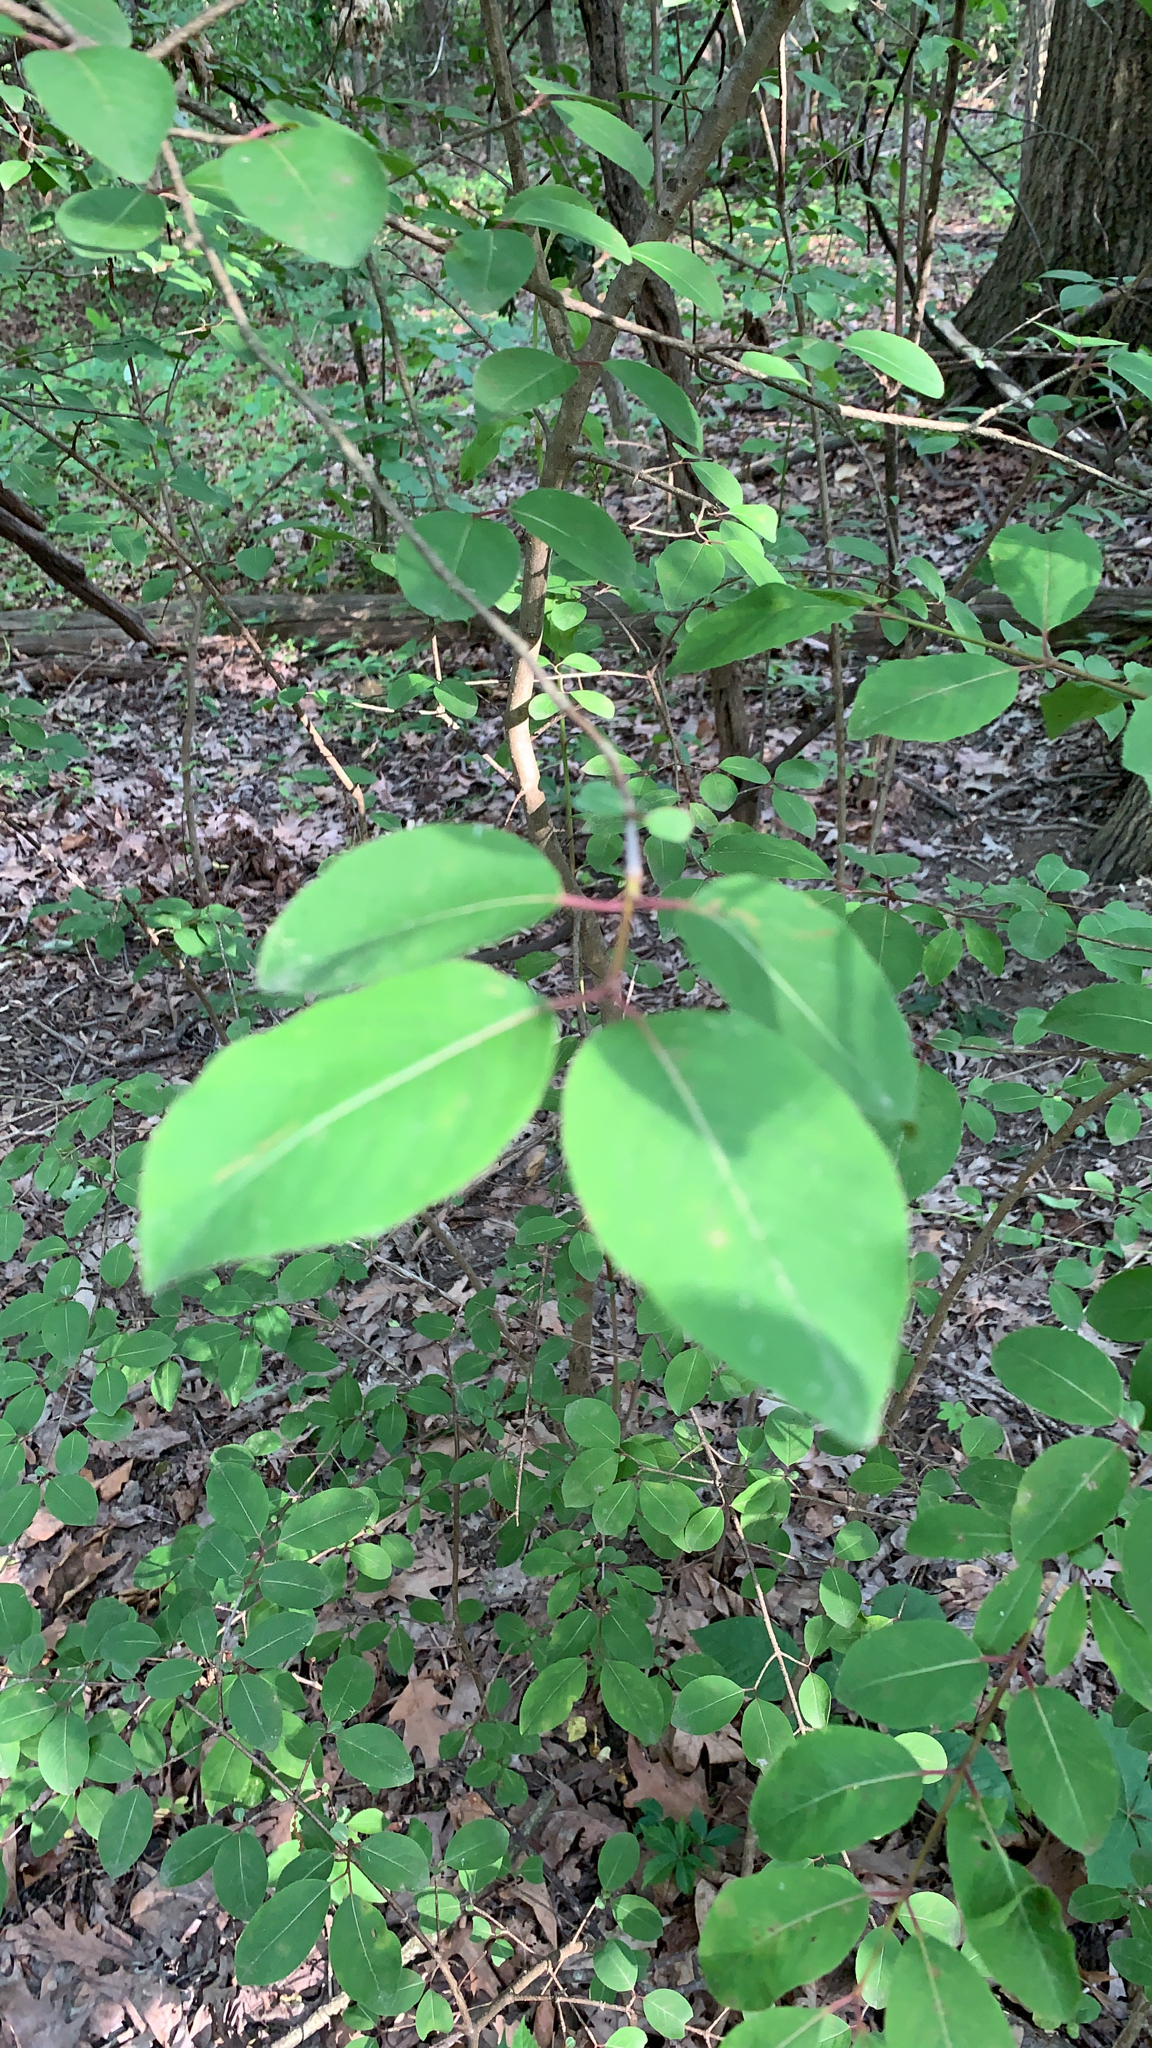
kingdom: Plantae
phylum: Tracheophyta
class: Magnoliopsida
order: Dipsacales
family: Viburnaceae
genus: Viburnum
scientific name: Viburnum prunifolium
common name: Black haw
